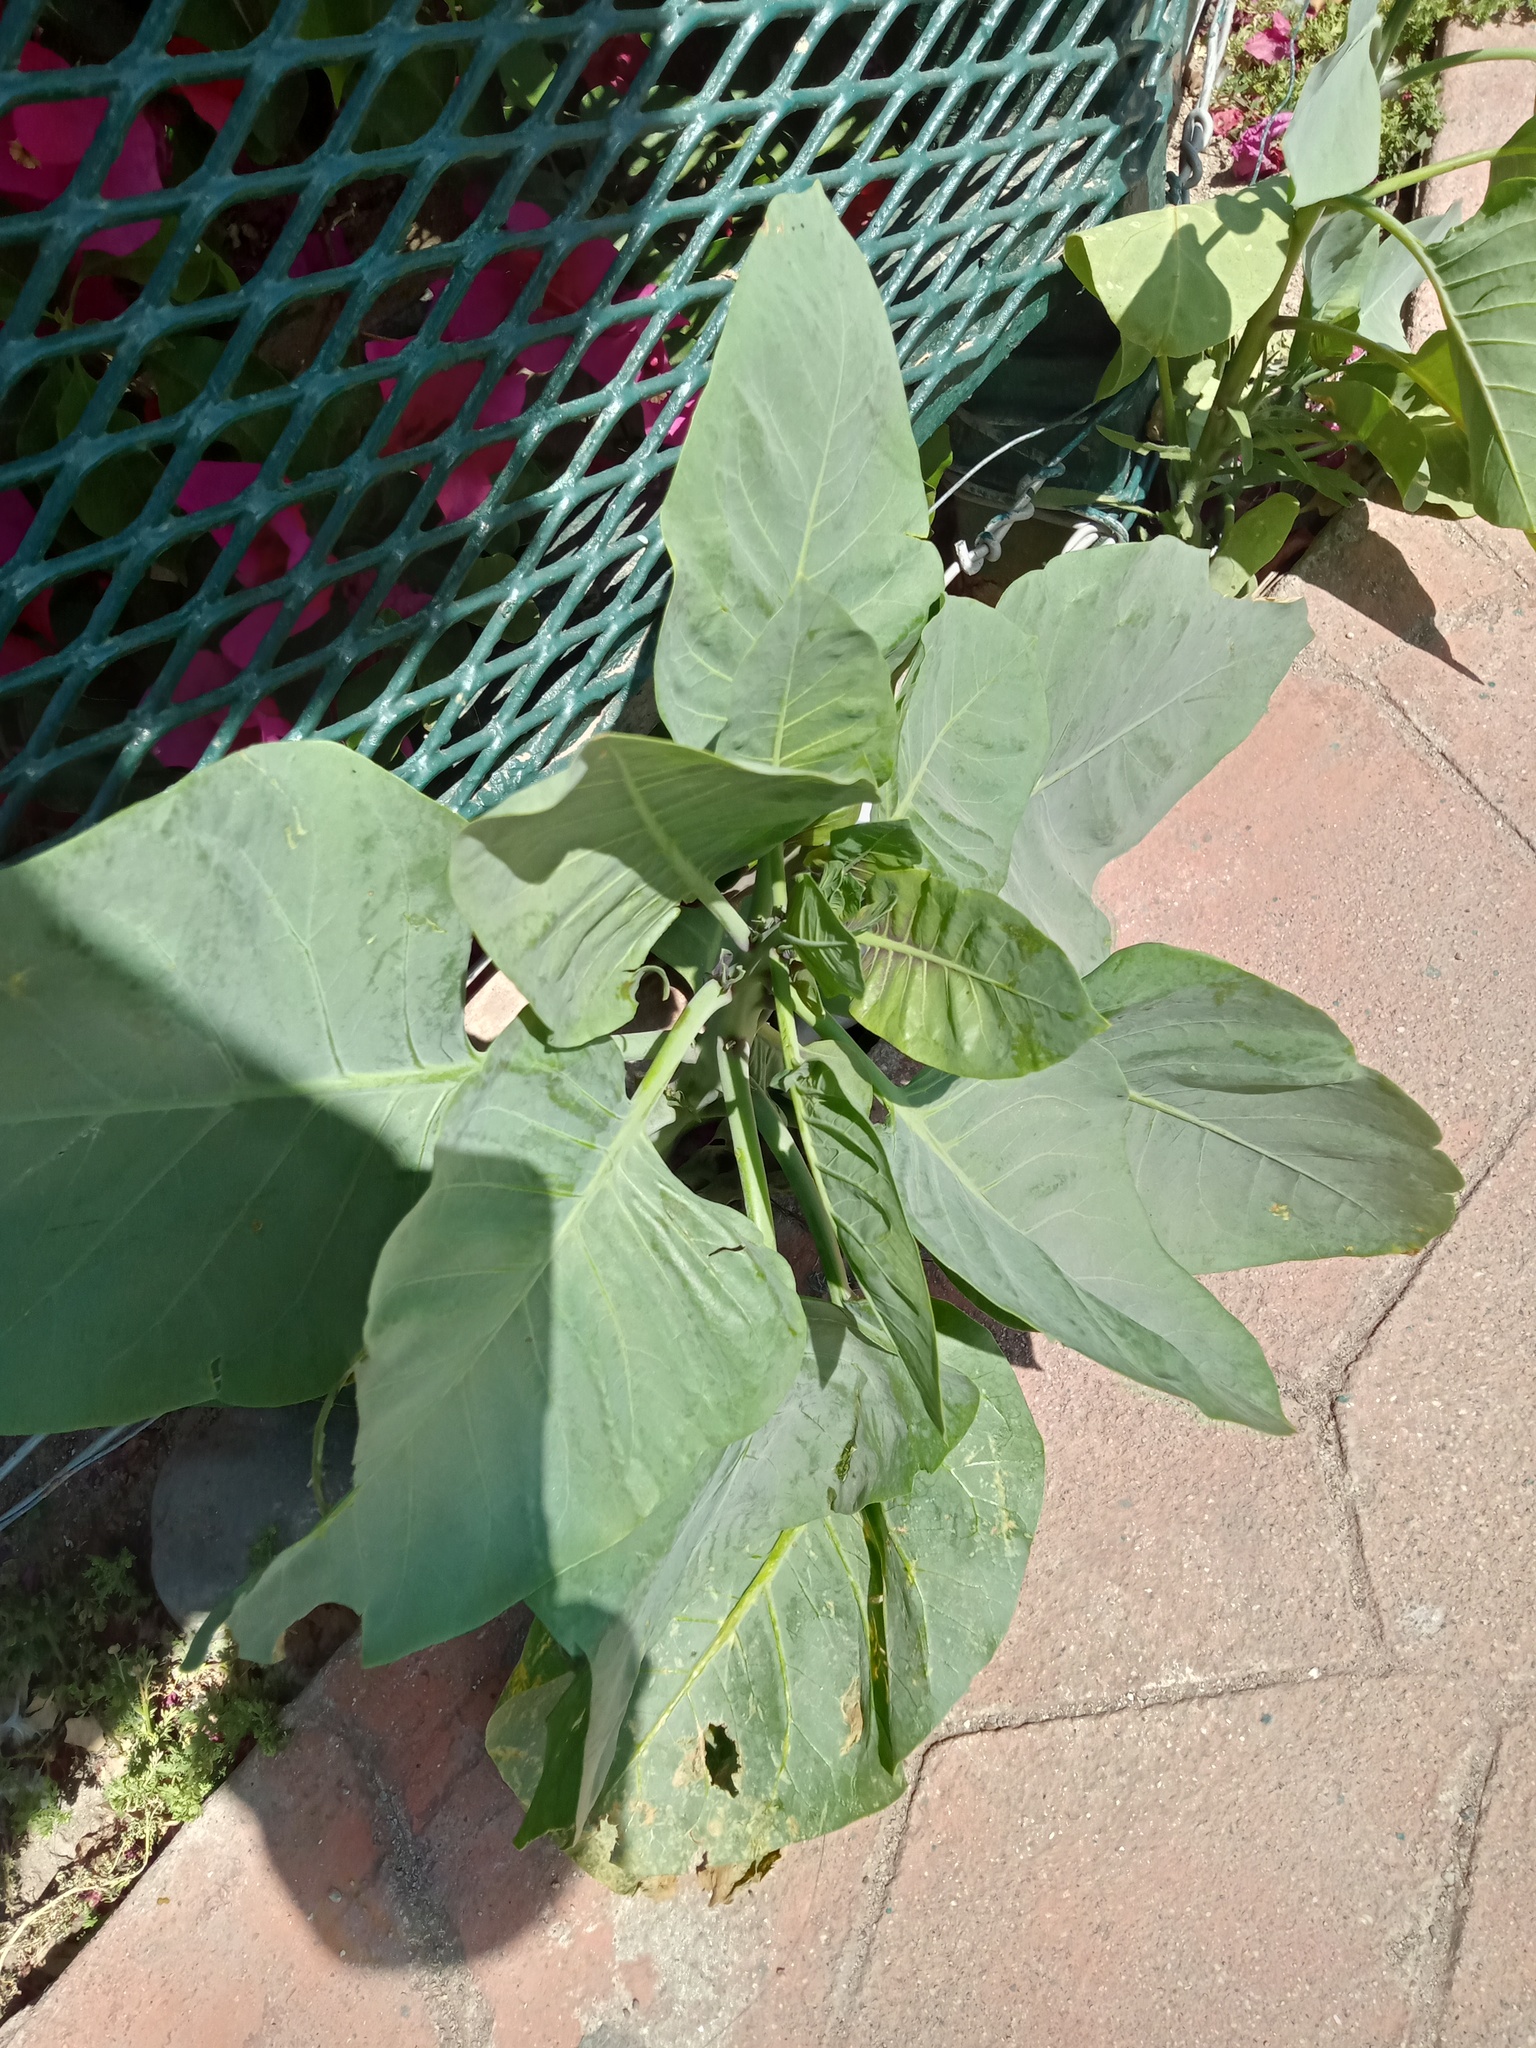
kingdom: Plantae
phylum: Tracheophyta
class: Magnoliopsida
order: Solanales
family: Solanaceae
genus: Nicotiana
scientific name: Nicotiana glauca
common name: Tree tobacco
